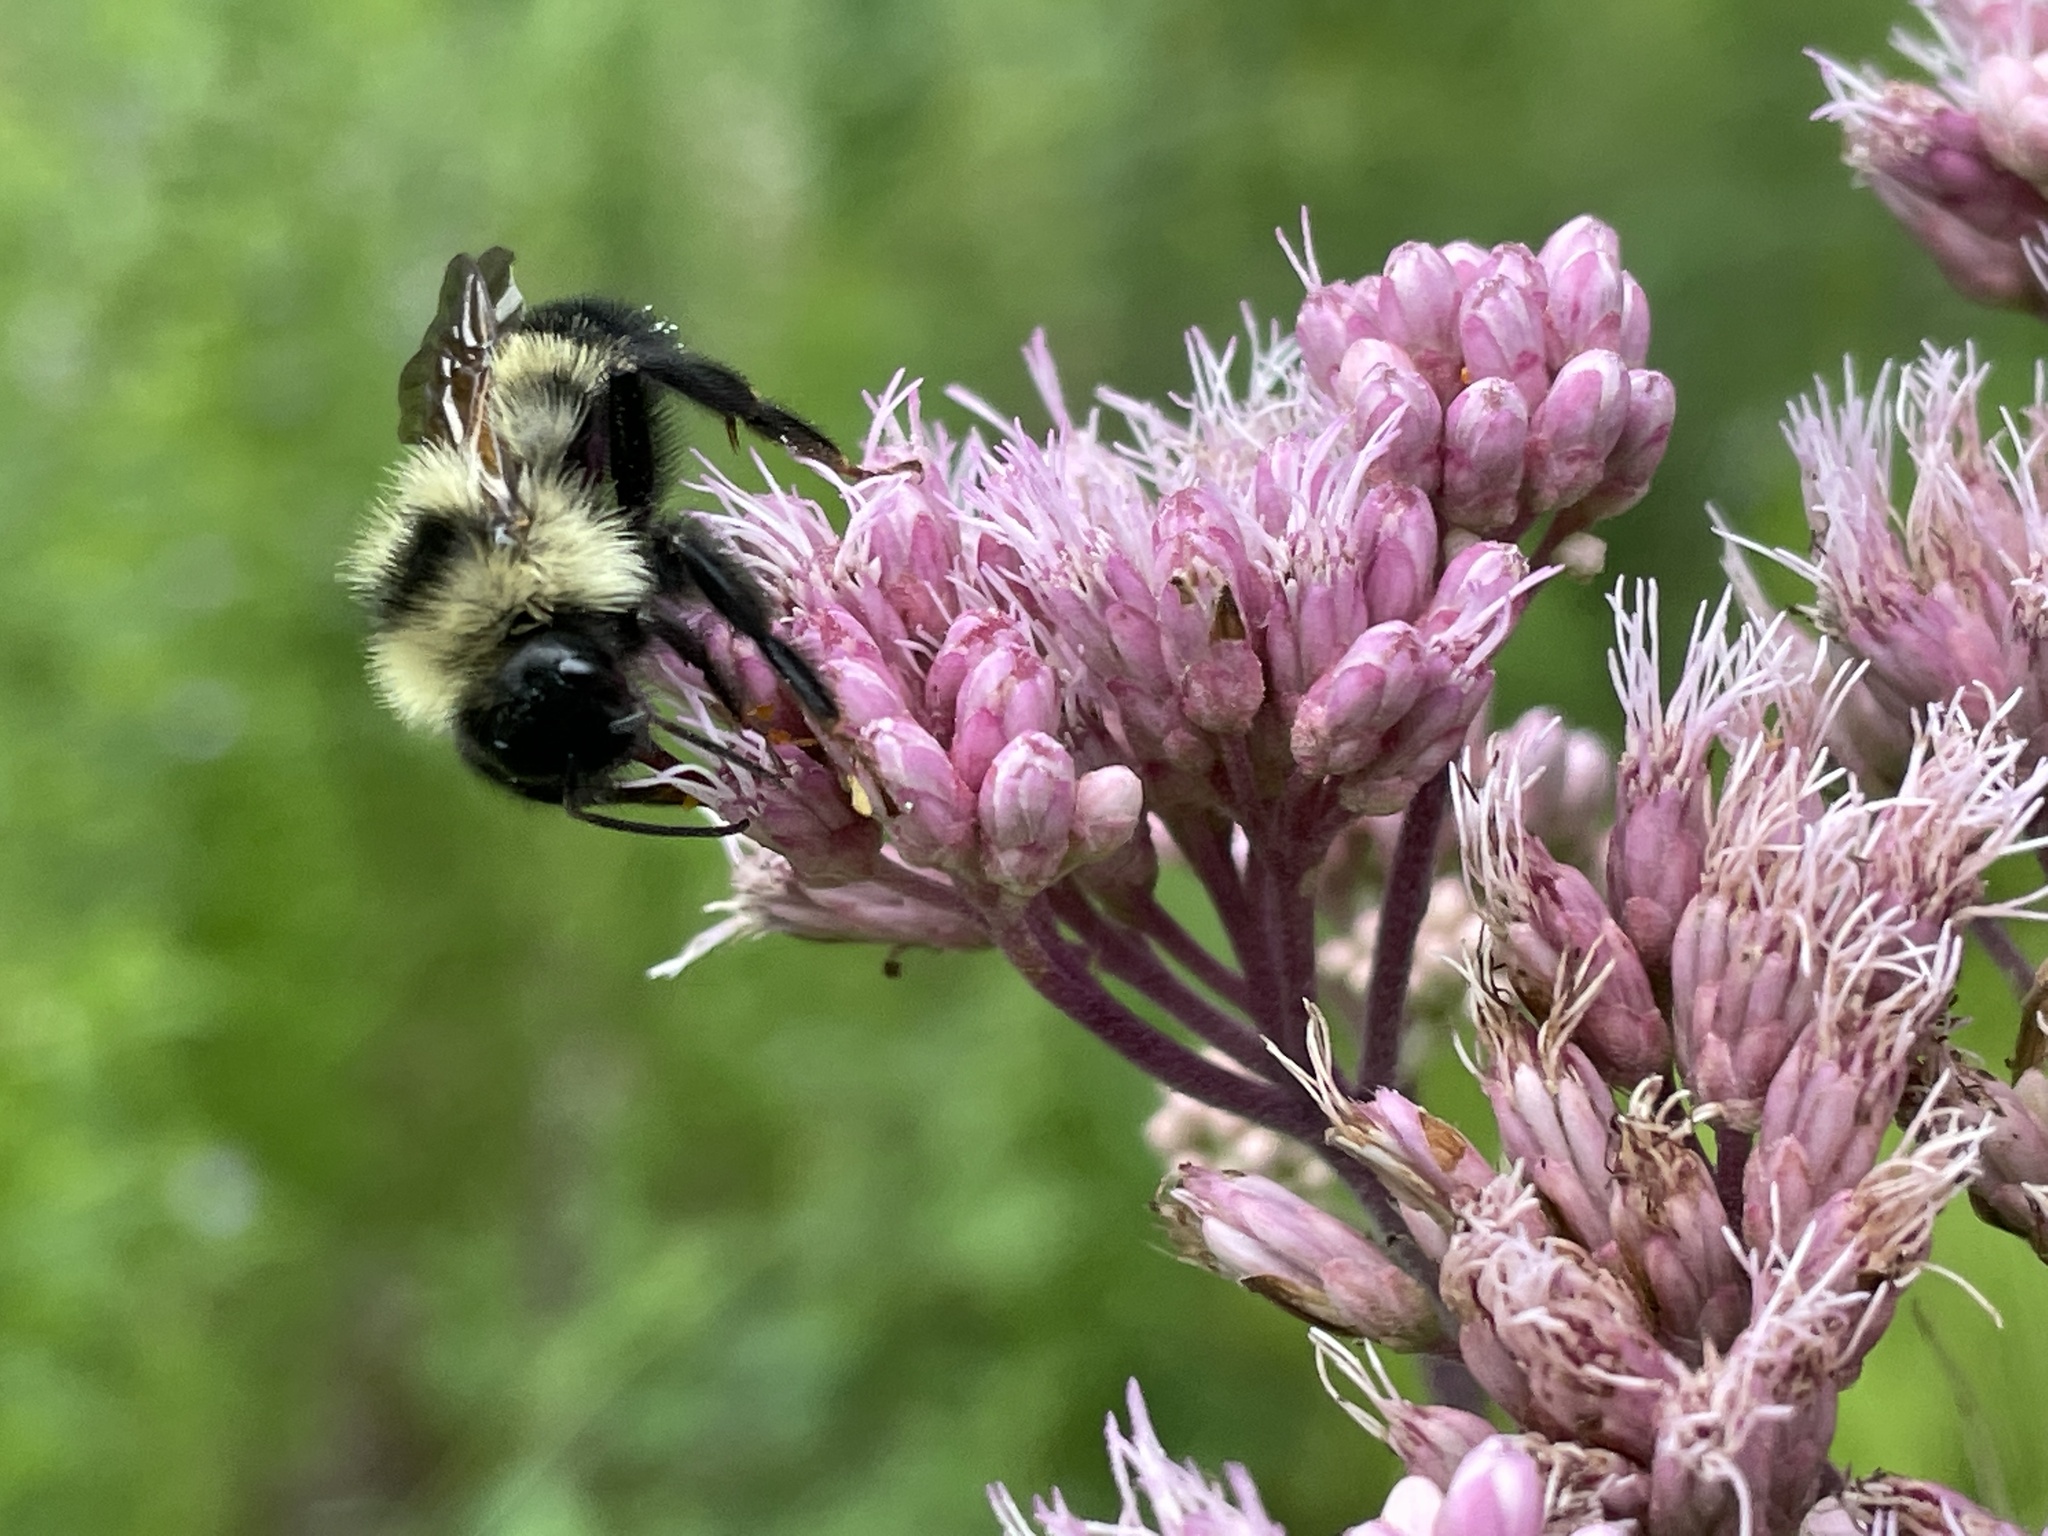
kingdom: Animalia
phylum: Arthropoda
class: Insecta
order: Hymenoptera
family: Apidae
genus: Bombus
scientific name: Bombus citrinus
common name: Lemon cuckoo bumble bee
